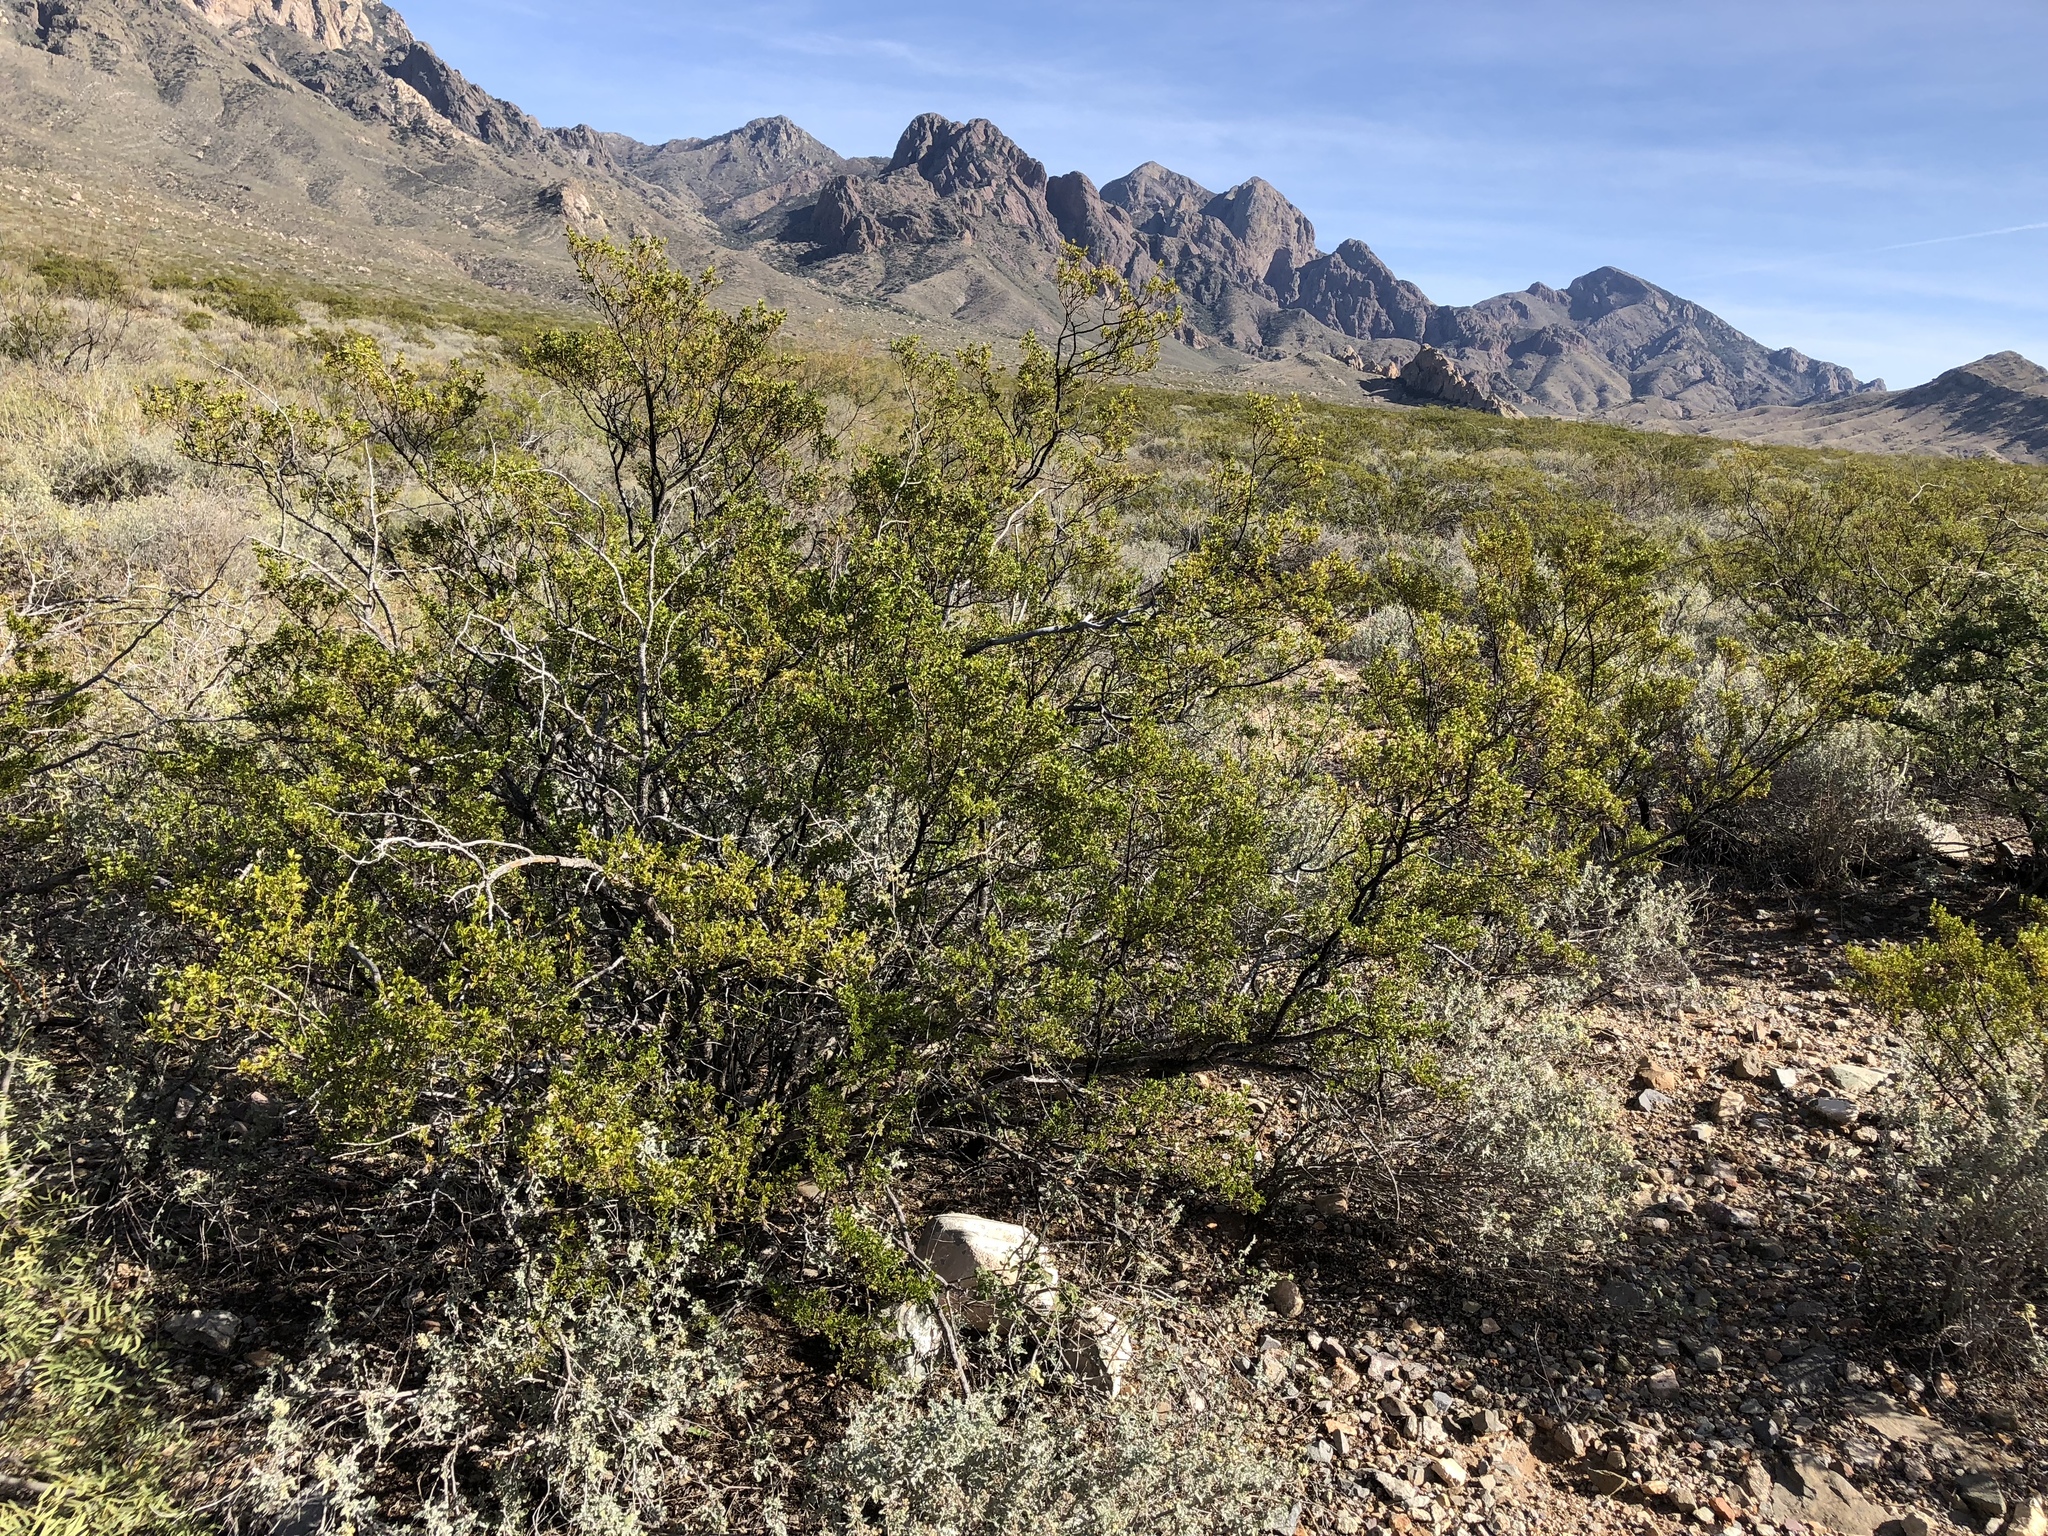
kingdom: Plantae
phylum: Tracheophyta
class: Magnoliopsida
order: Zygophyllales
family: Zygophyllaceae
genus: Larrea
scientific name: Larrea tridentata
